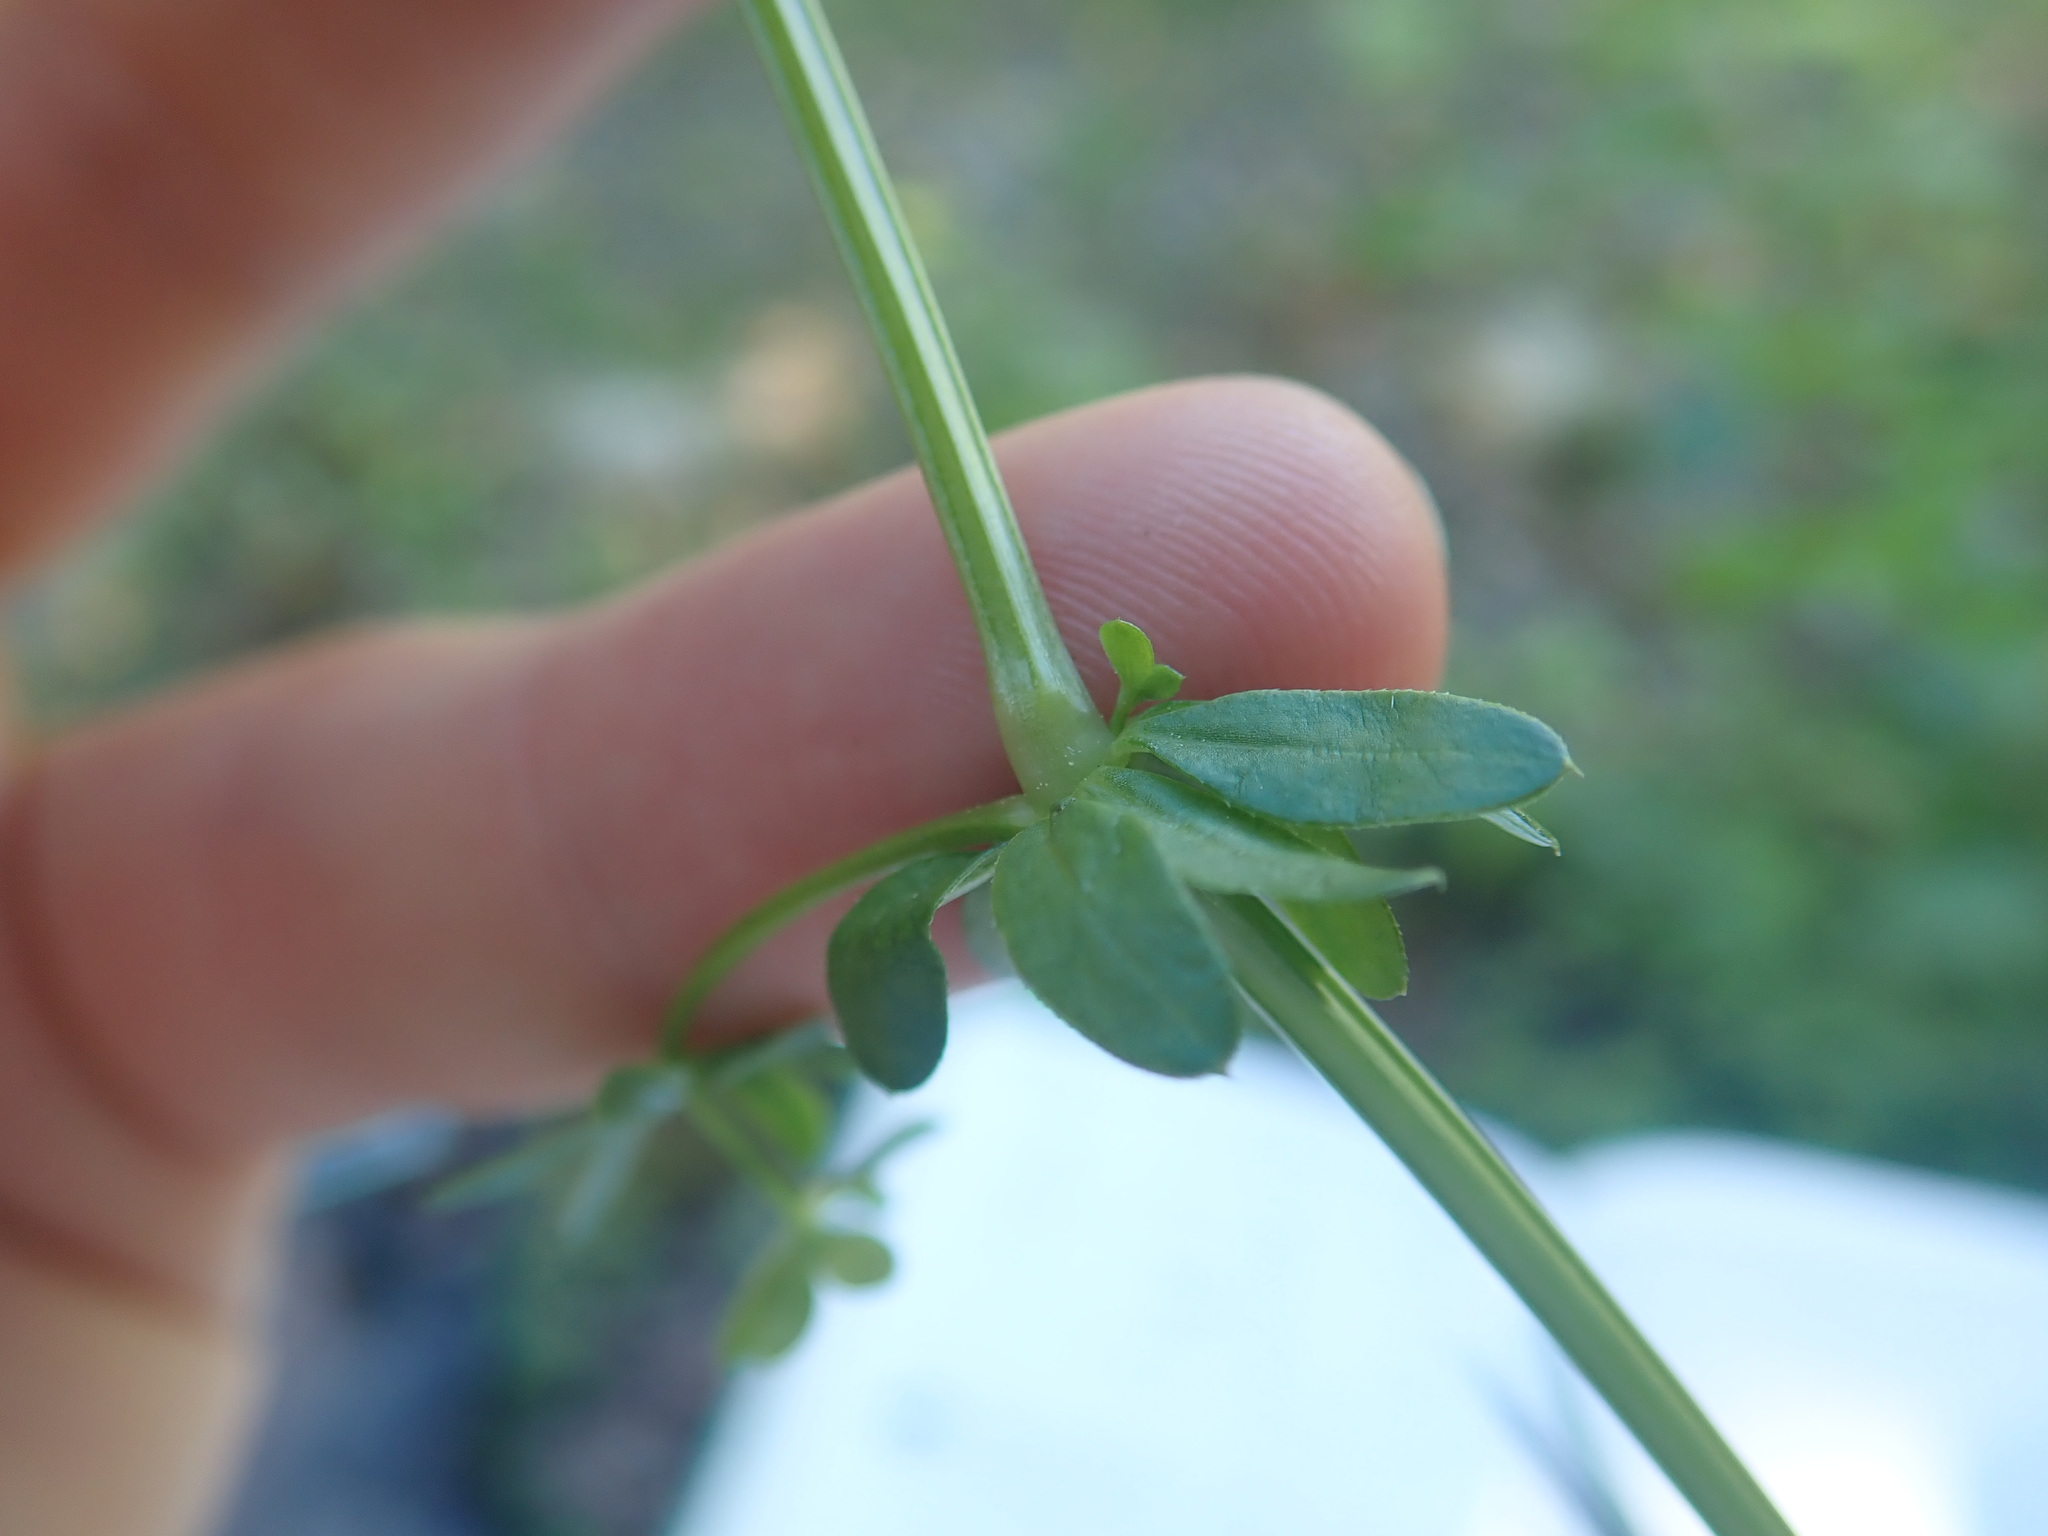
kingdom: Plantae
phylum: Tracheophyta
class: Magnoliopsida
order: Gentianales
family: Rubiaceae
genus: Galium
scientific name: Galium mollugo
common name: Hedge bedstraw
